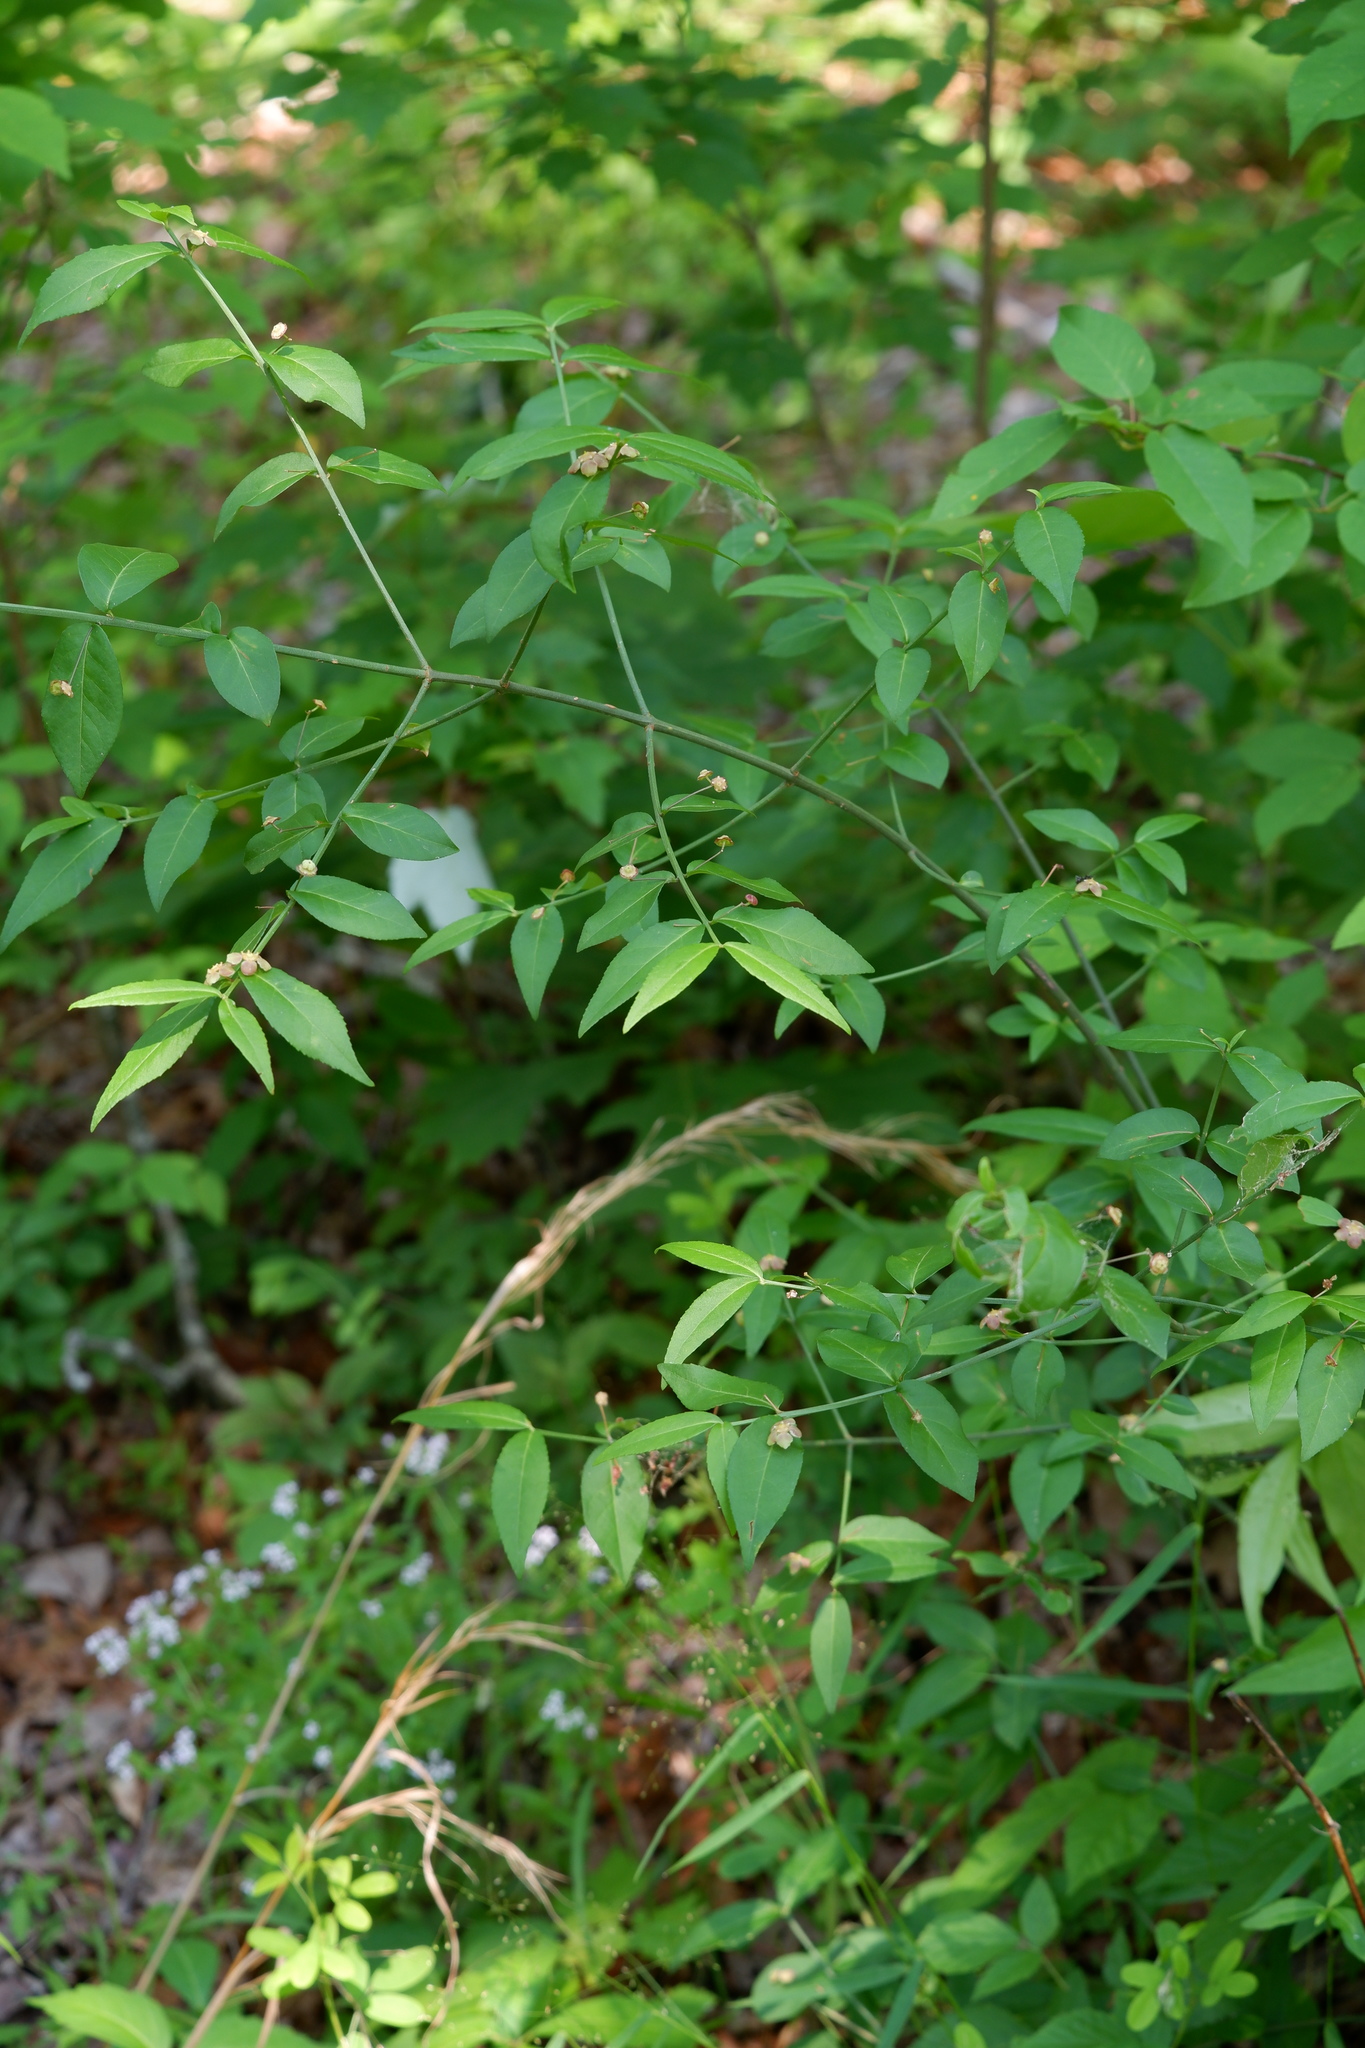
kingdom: Plantae
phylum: Tracheophyta
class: Magnoliopsida
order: Celastrales
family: Celastraceae
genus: Euonymus
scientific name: Euonymus americanus
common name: Bursting-heart
